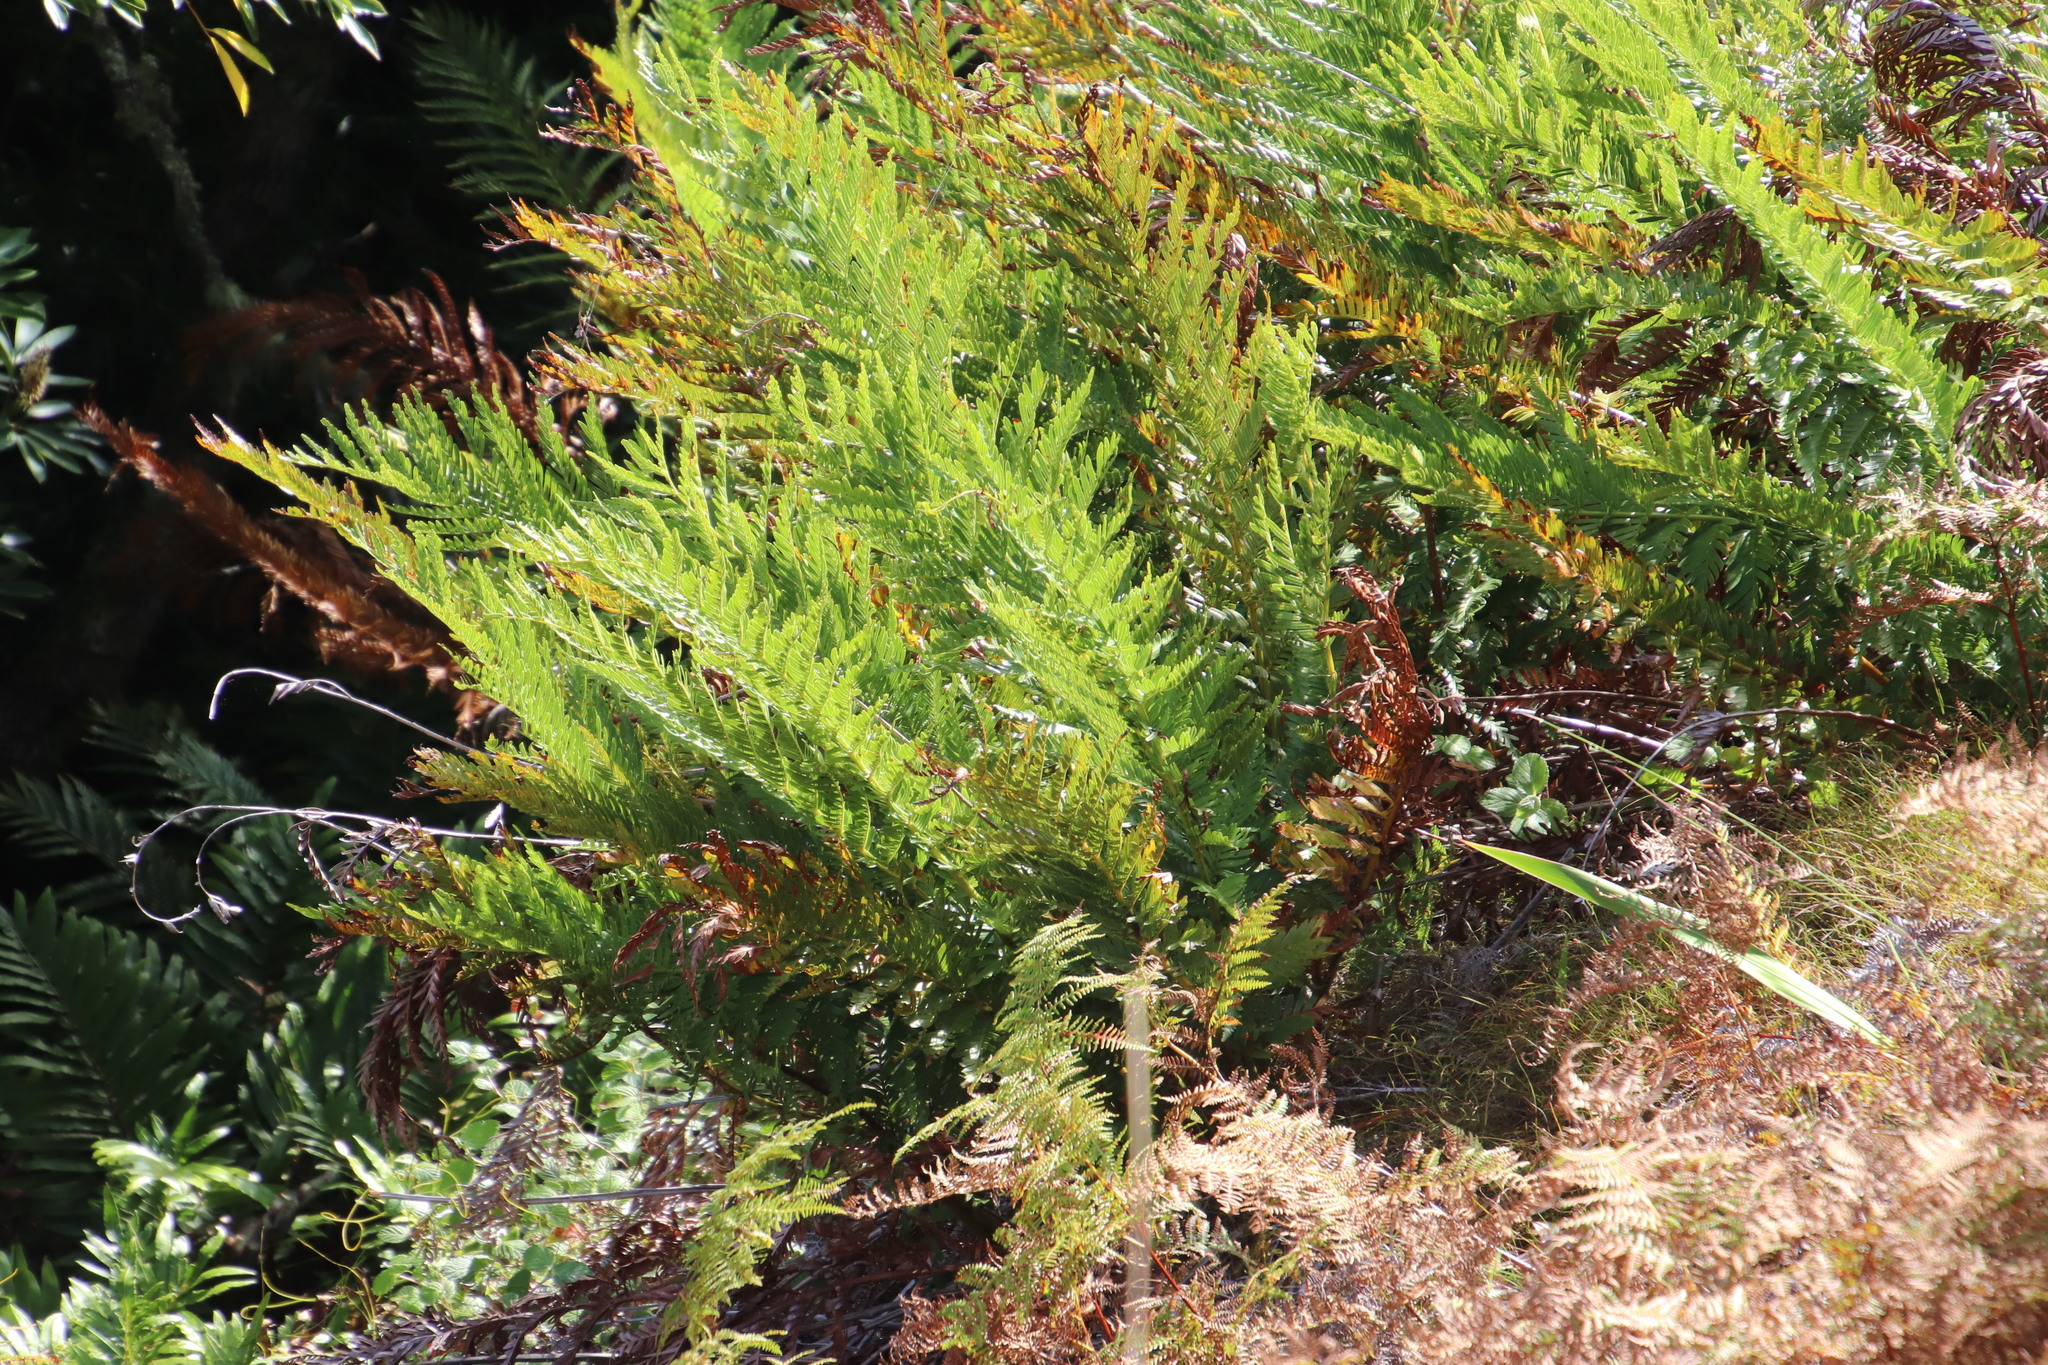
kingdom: Plantae
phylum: Tracheophyta
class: Polypodiopsida
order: Osmundales
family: Osmundaceae
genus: Todea
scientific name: Todea barbara
